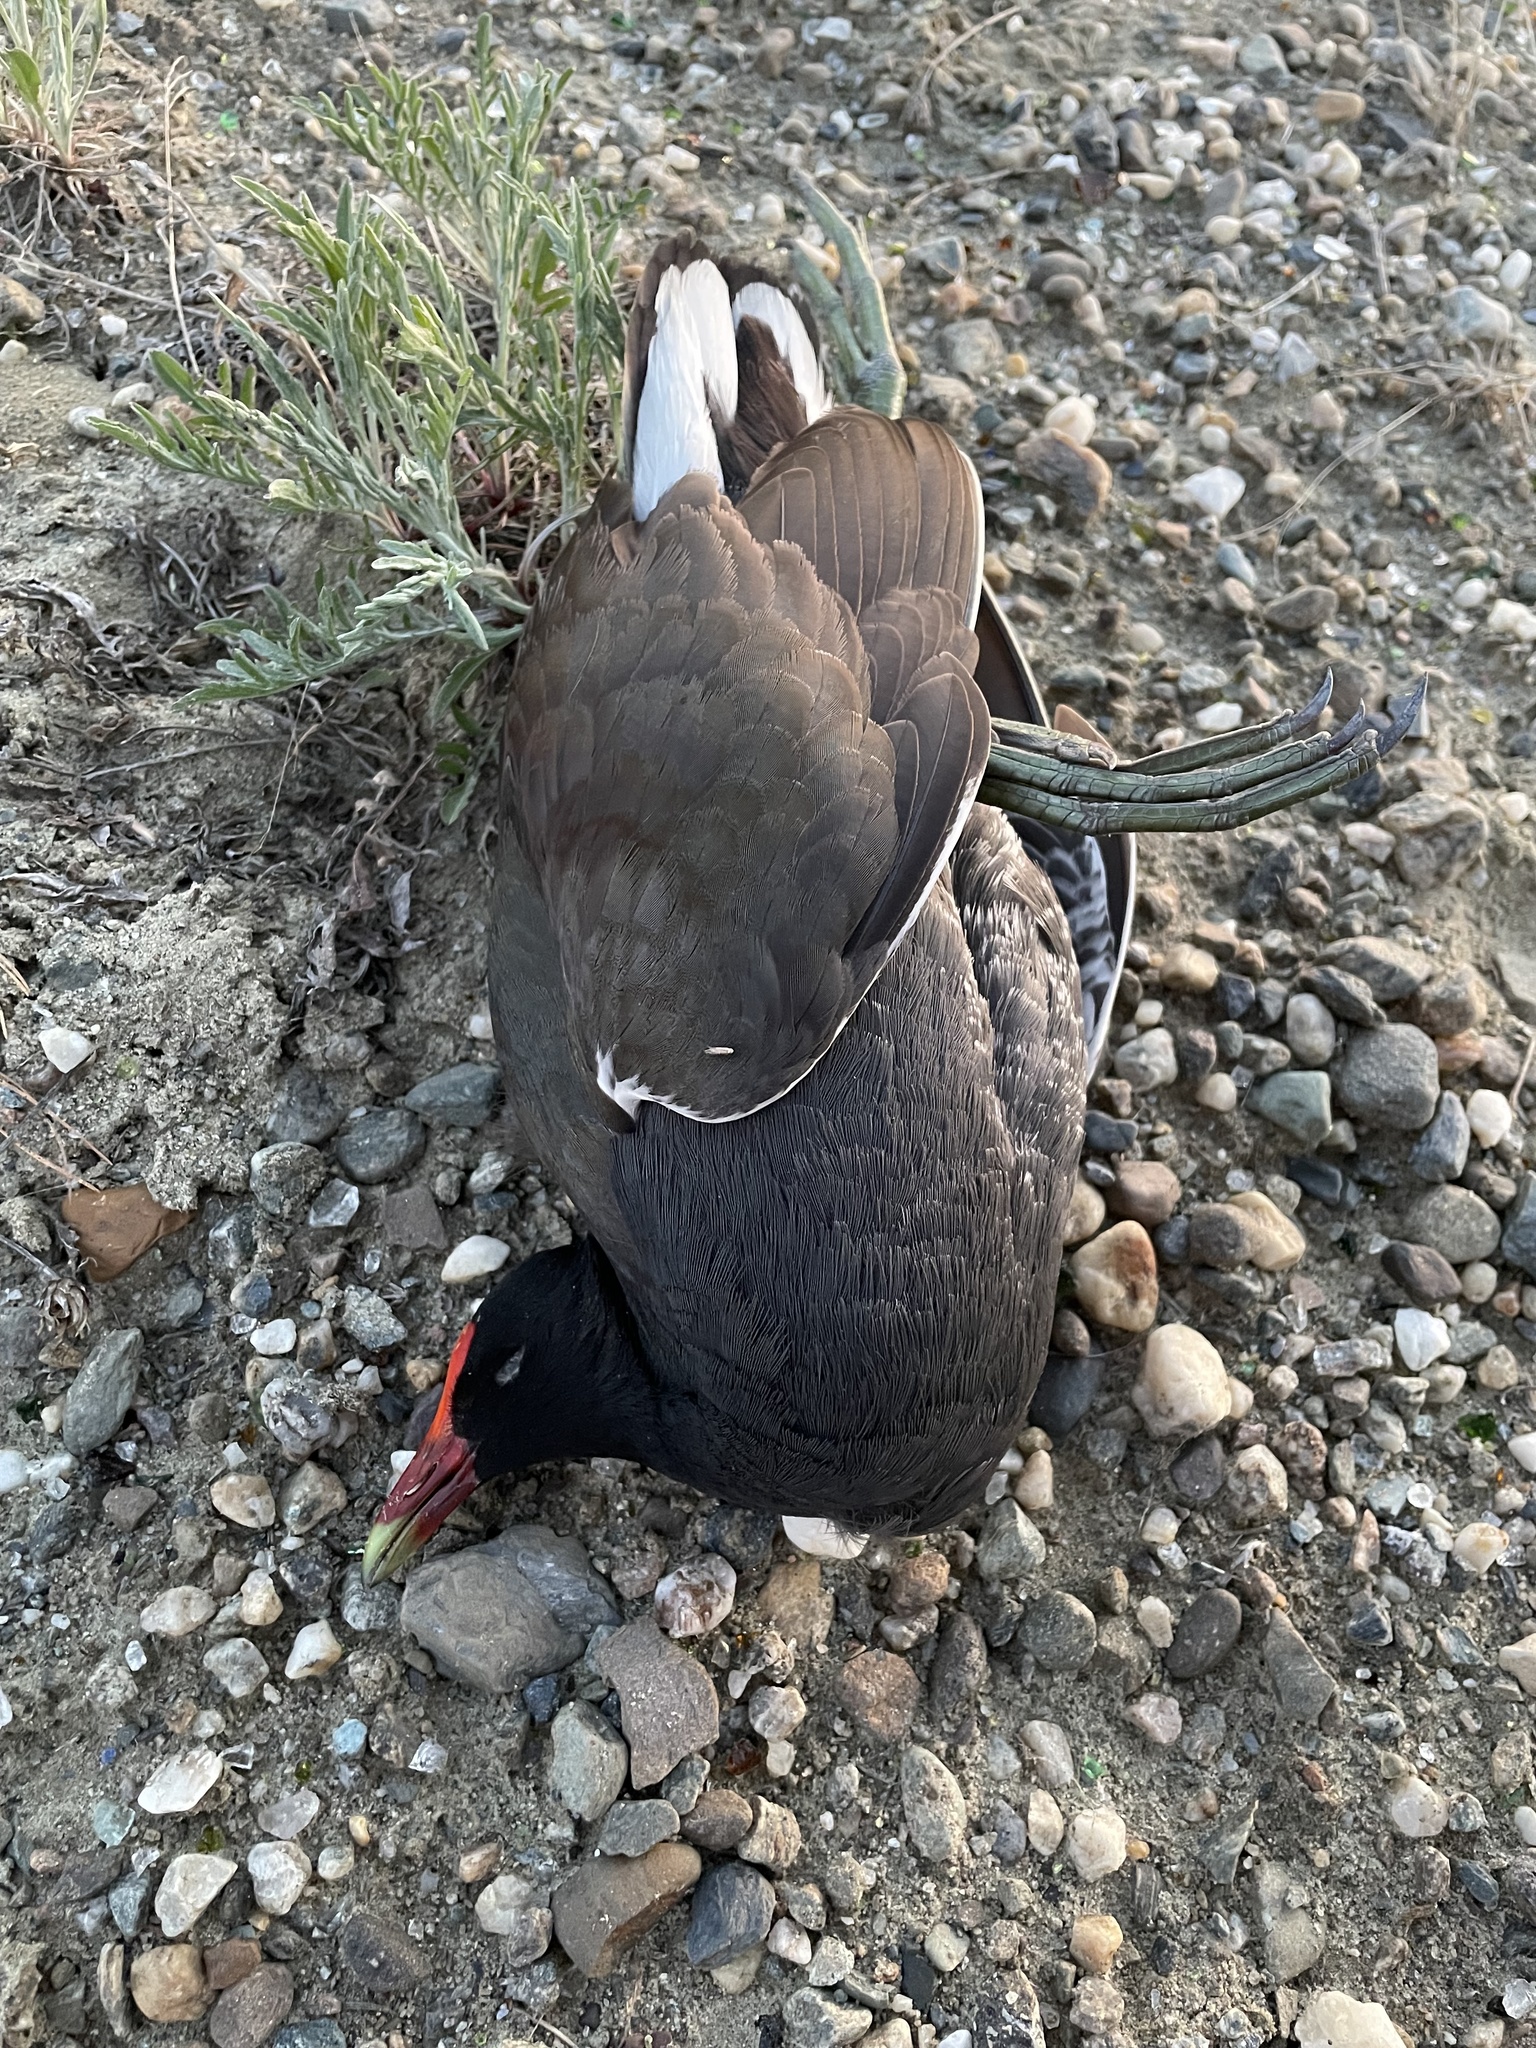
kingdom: Animalia
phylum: Chordata
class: Aves
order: Gruiformes
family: Rallidae
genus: Gallinula
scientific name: Gallinula chloropus
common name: Common moorhen
